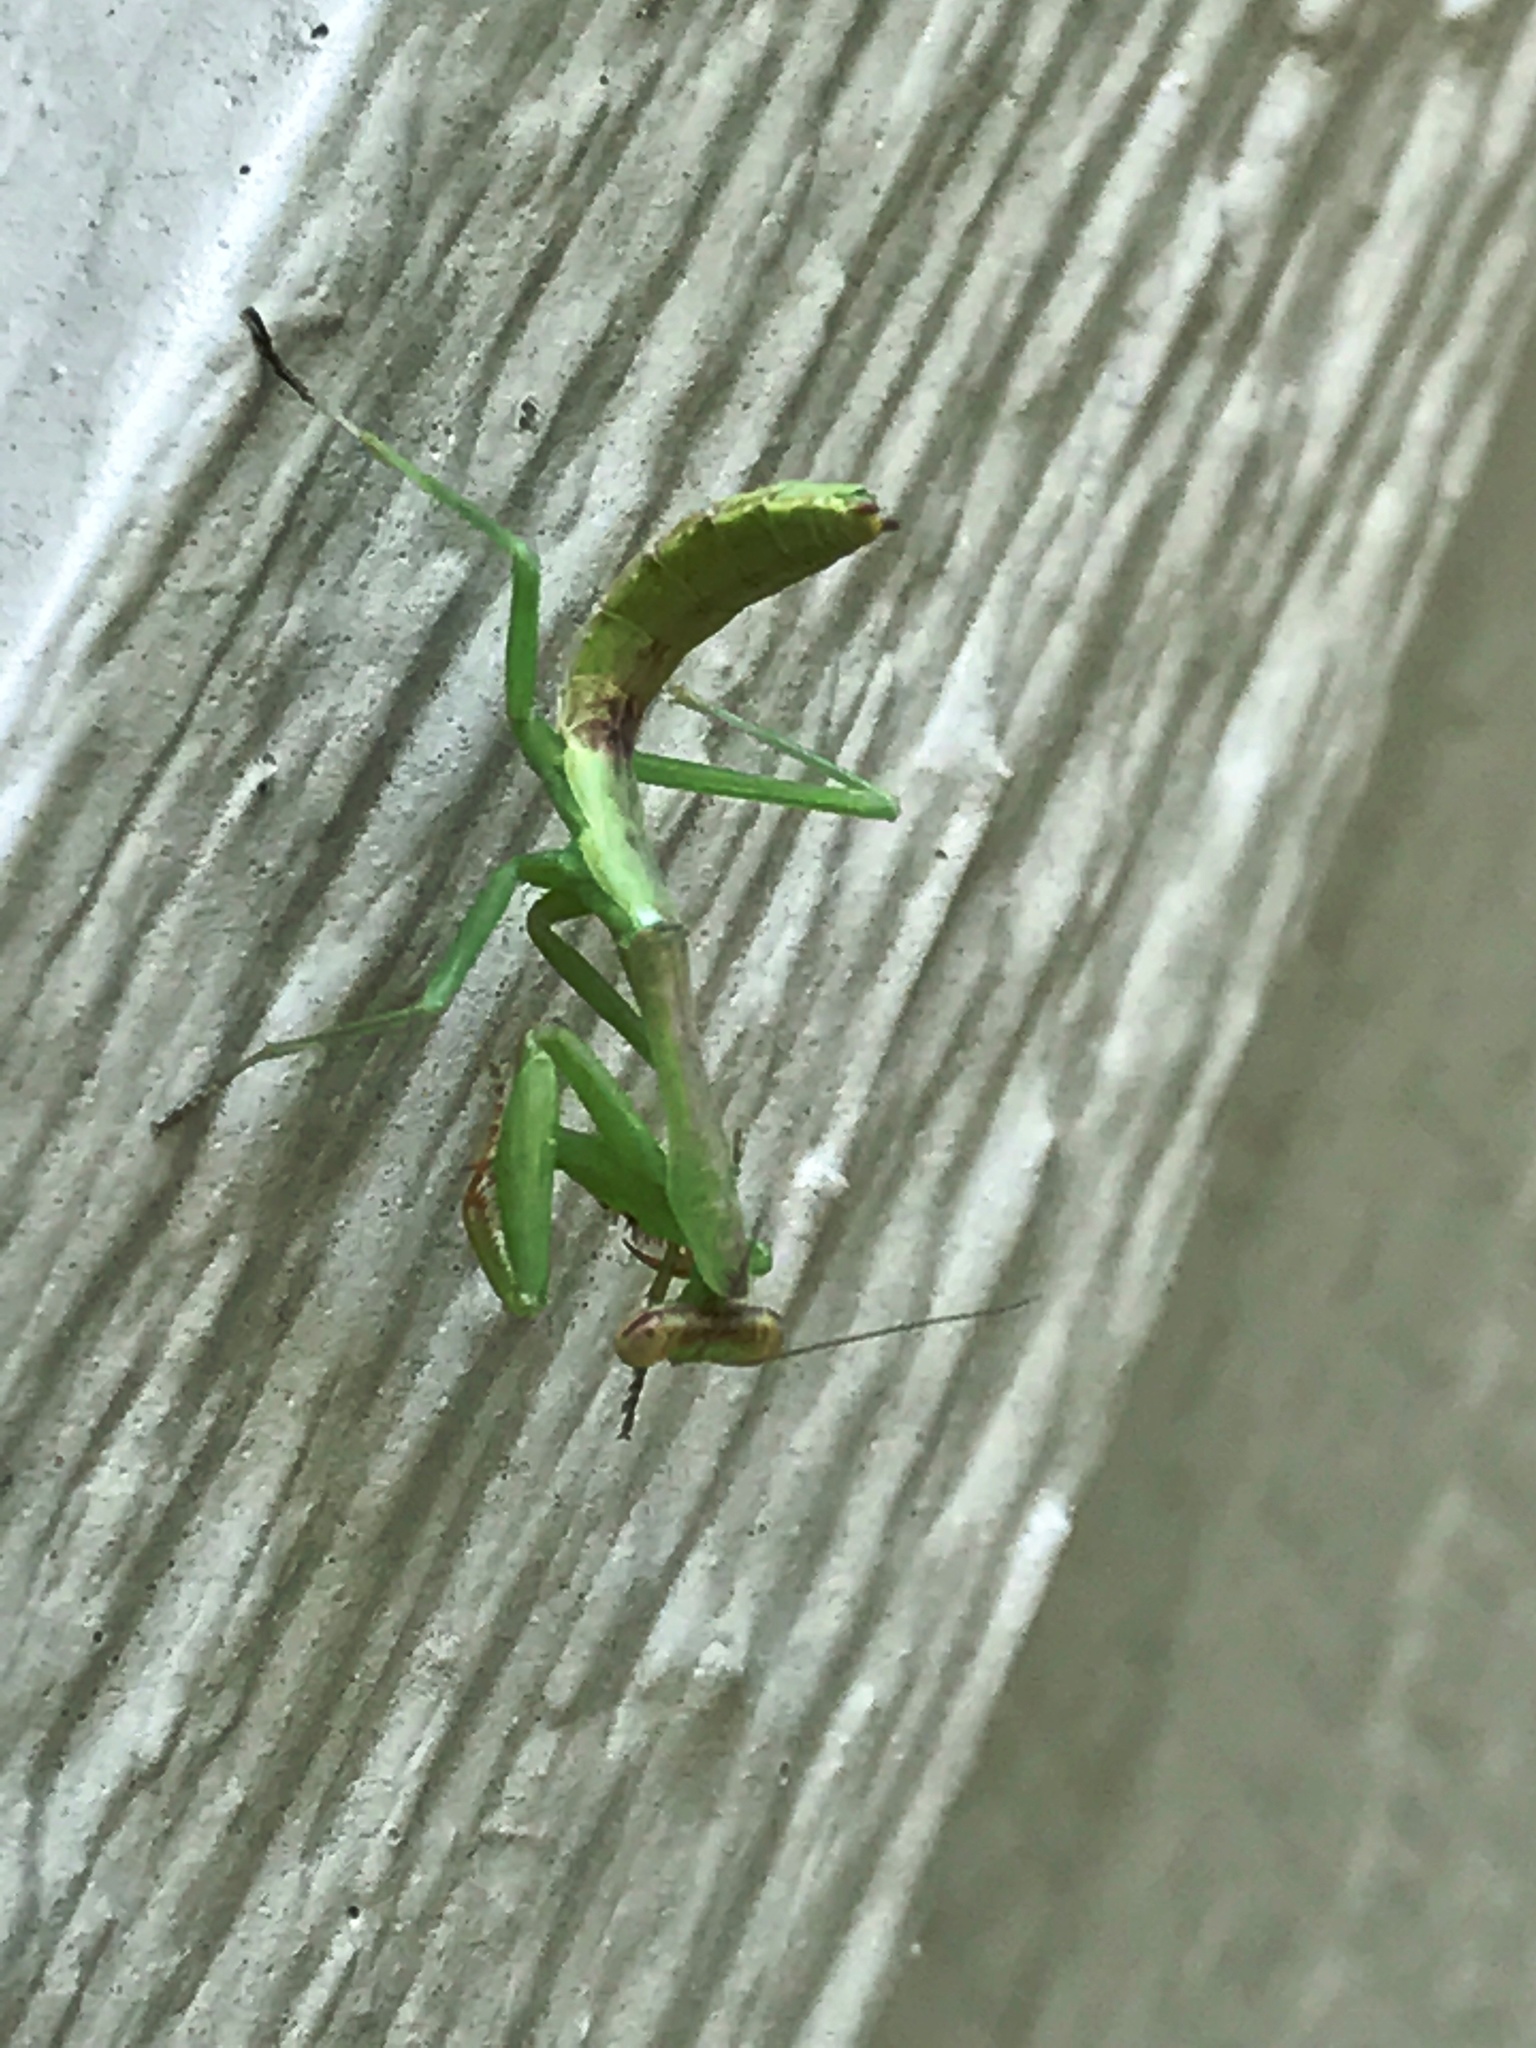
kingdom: Animalia
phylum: Arthropoda
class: Insecta
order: Mantodea
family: Mantidae
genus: Stagmomantis
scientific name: Stagmomantis carolina
